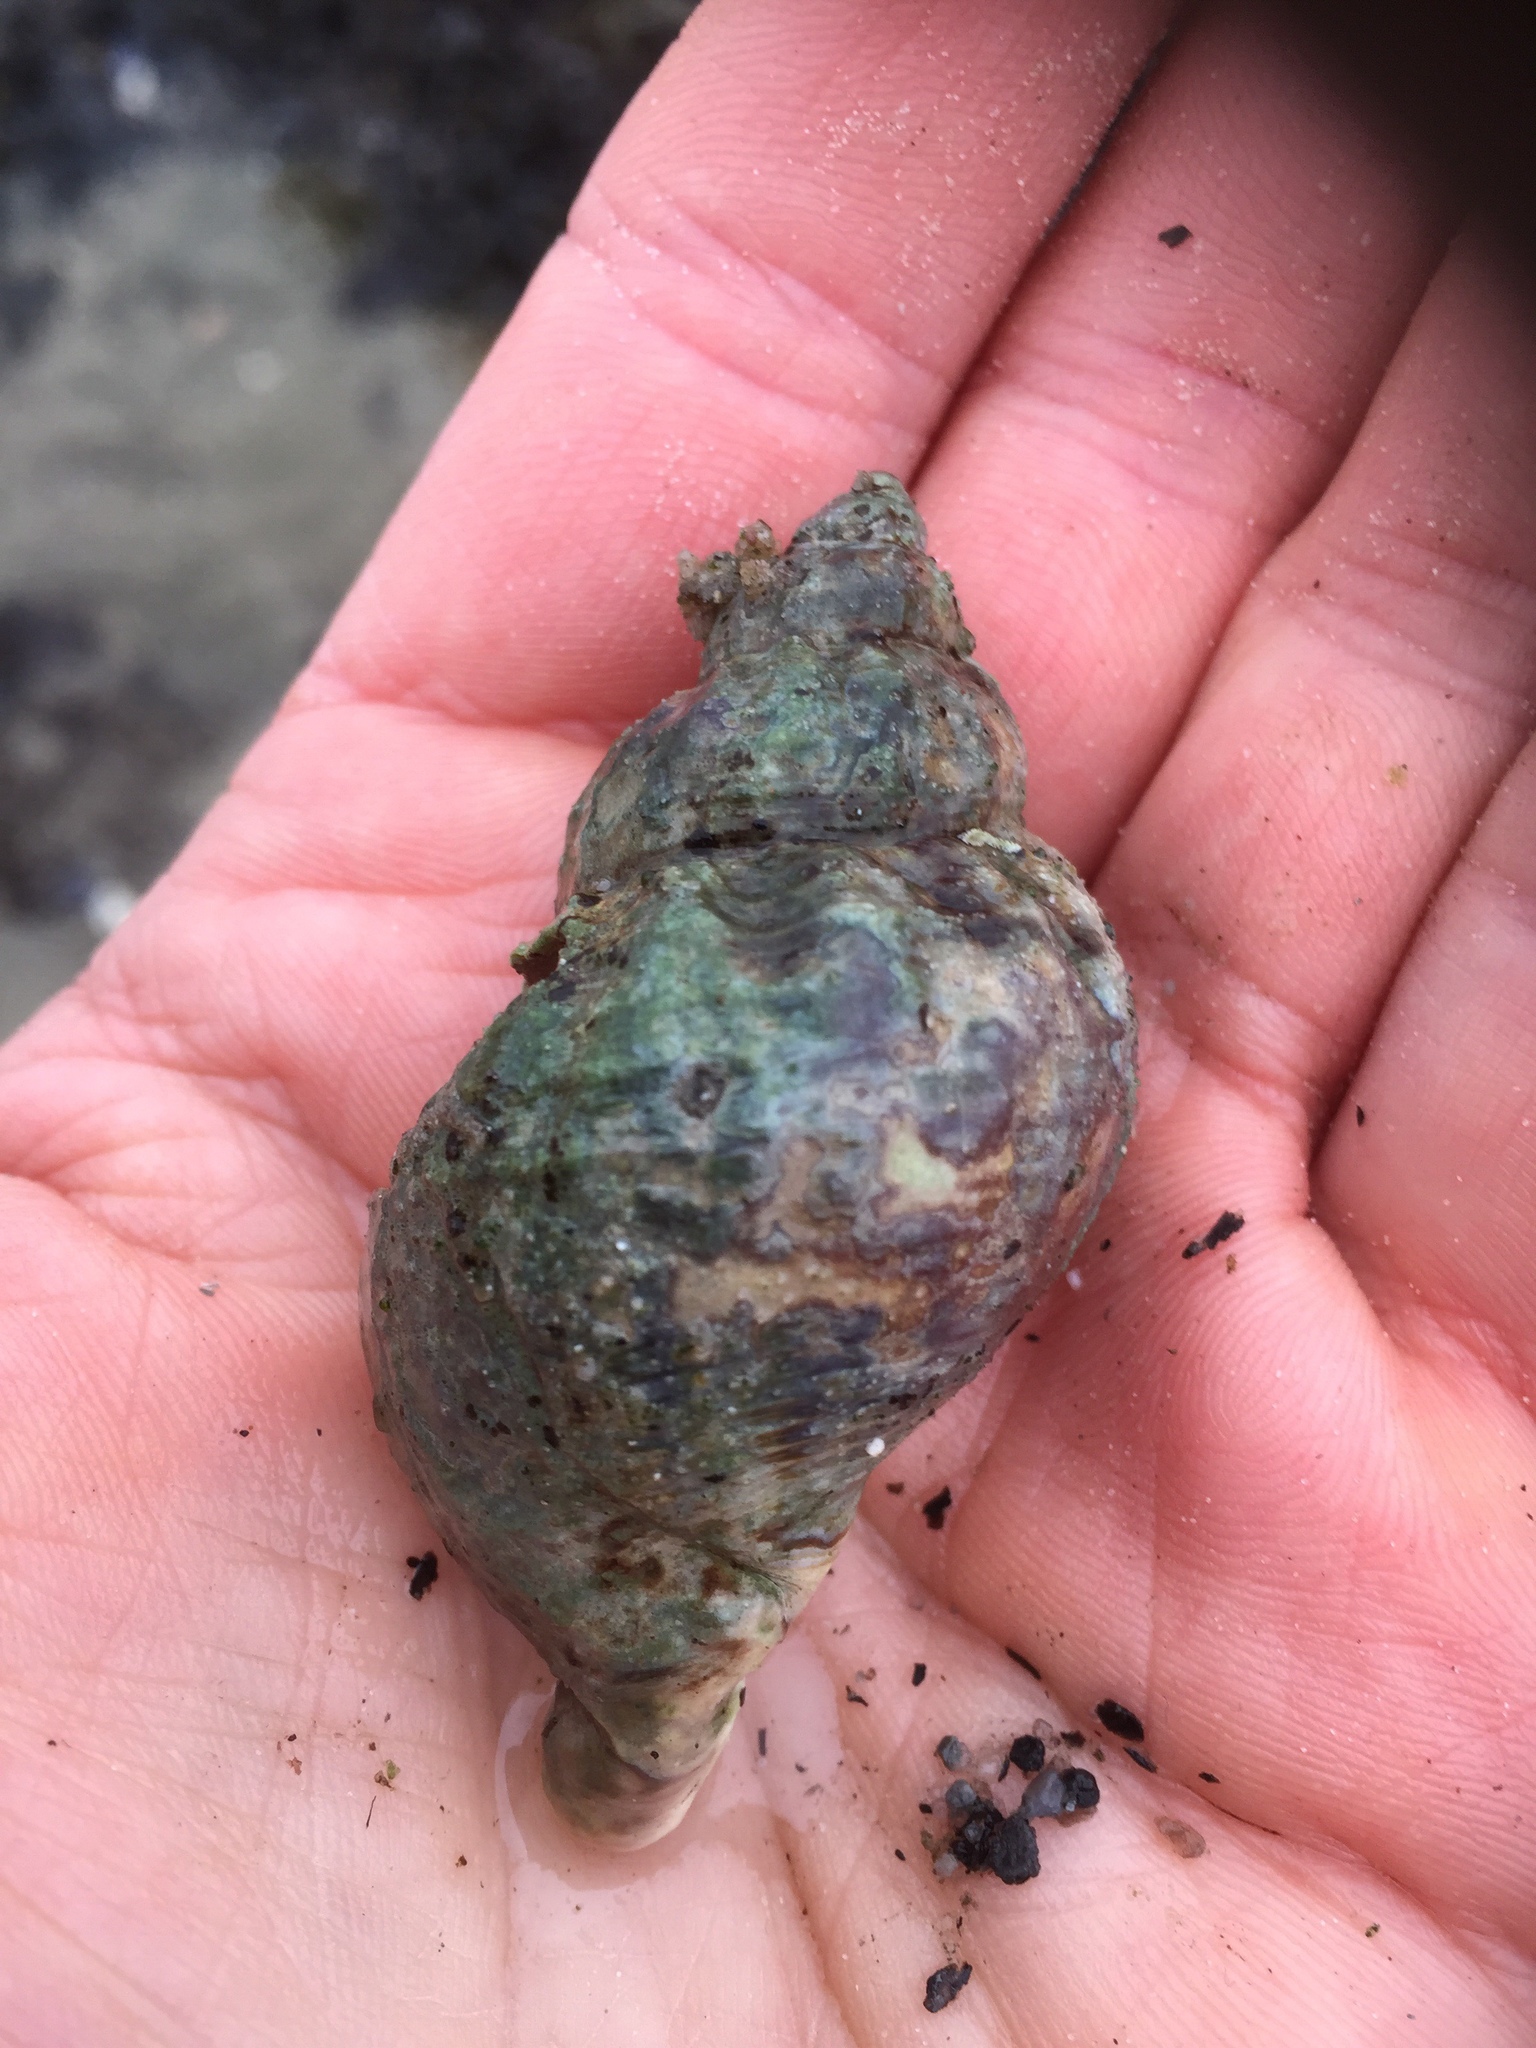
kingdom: Animalia
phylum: Mollusca
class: Gastropoda
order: Neogastropoda
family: Buccinidae
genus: Buccinum
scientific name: Buccinum undatum
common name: Common whelk
